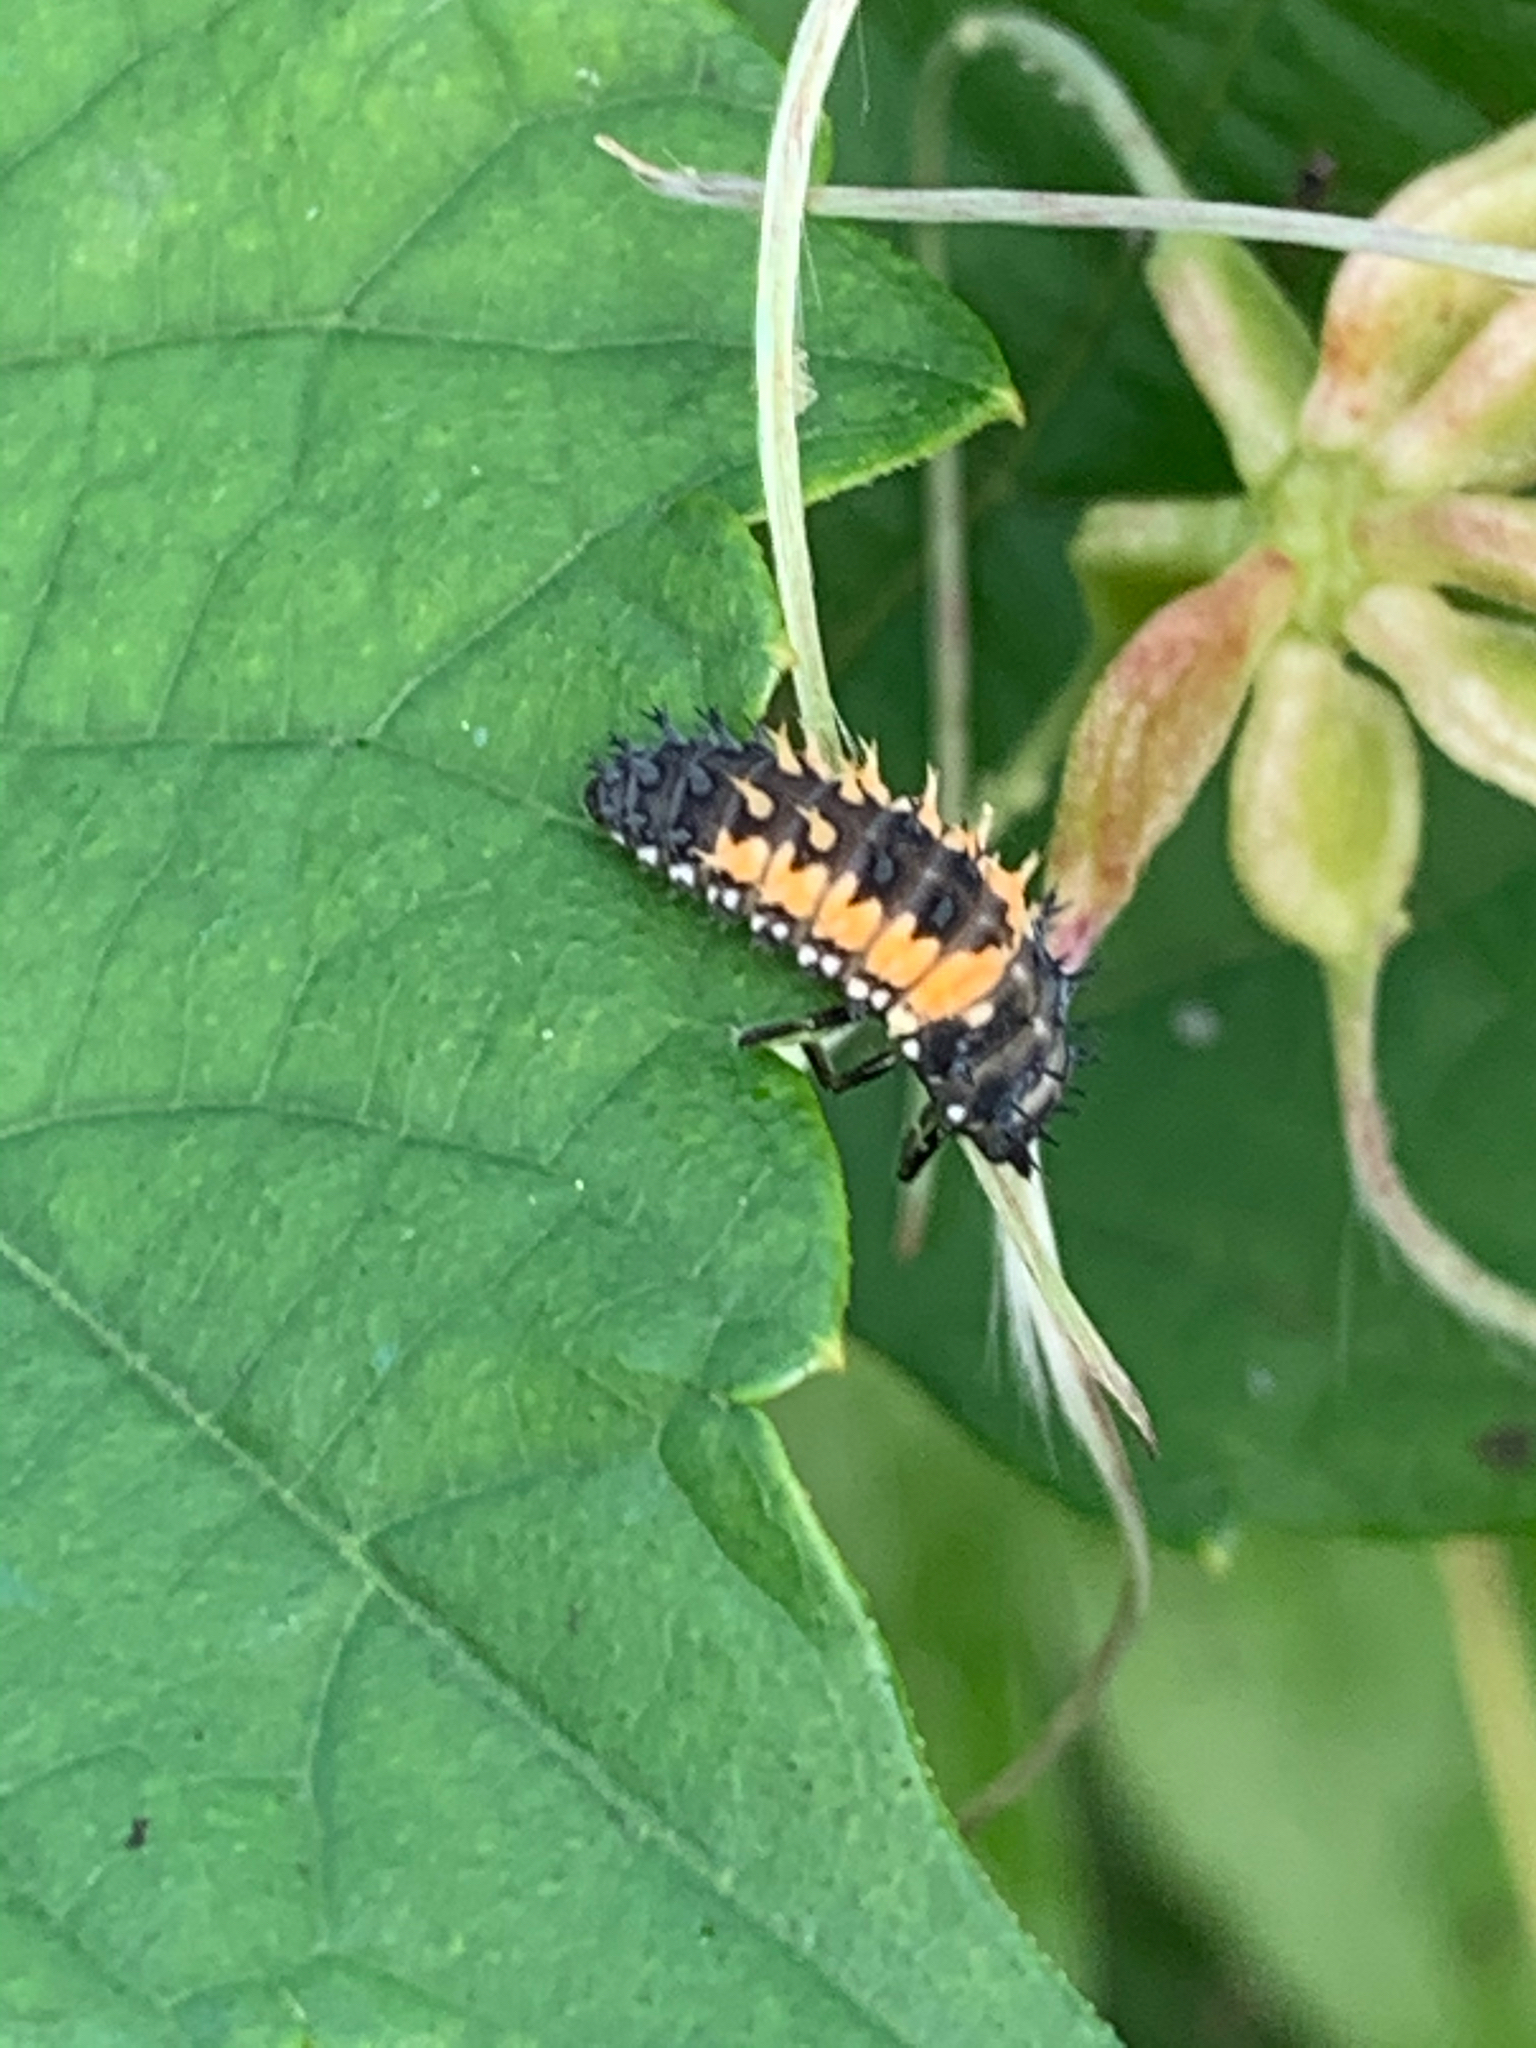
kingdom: Animalia
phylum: Arthropoda
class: Insecta
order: Coleoptera
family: Coccinellidae
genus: Harmonia
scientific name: Harmonia axyridis
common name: Harlequin ladybird
